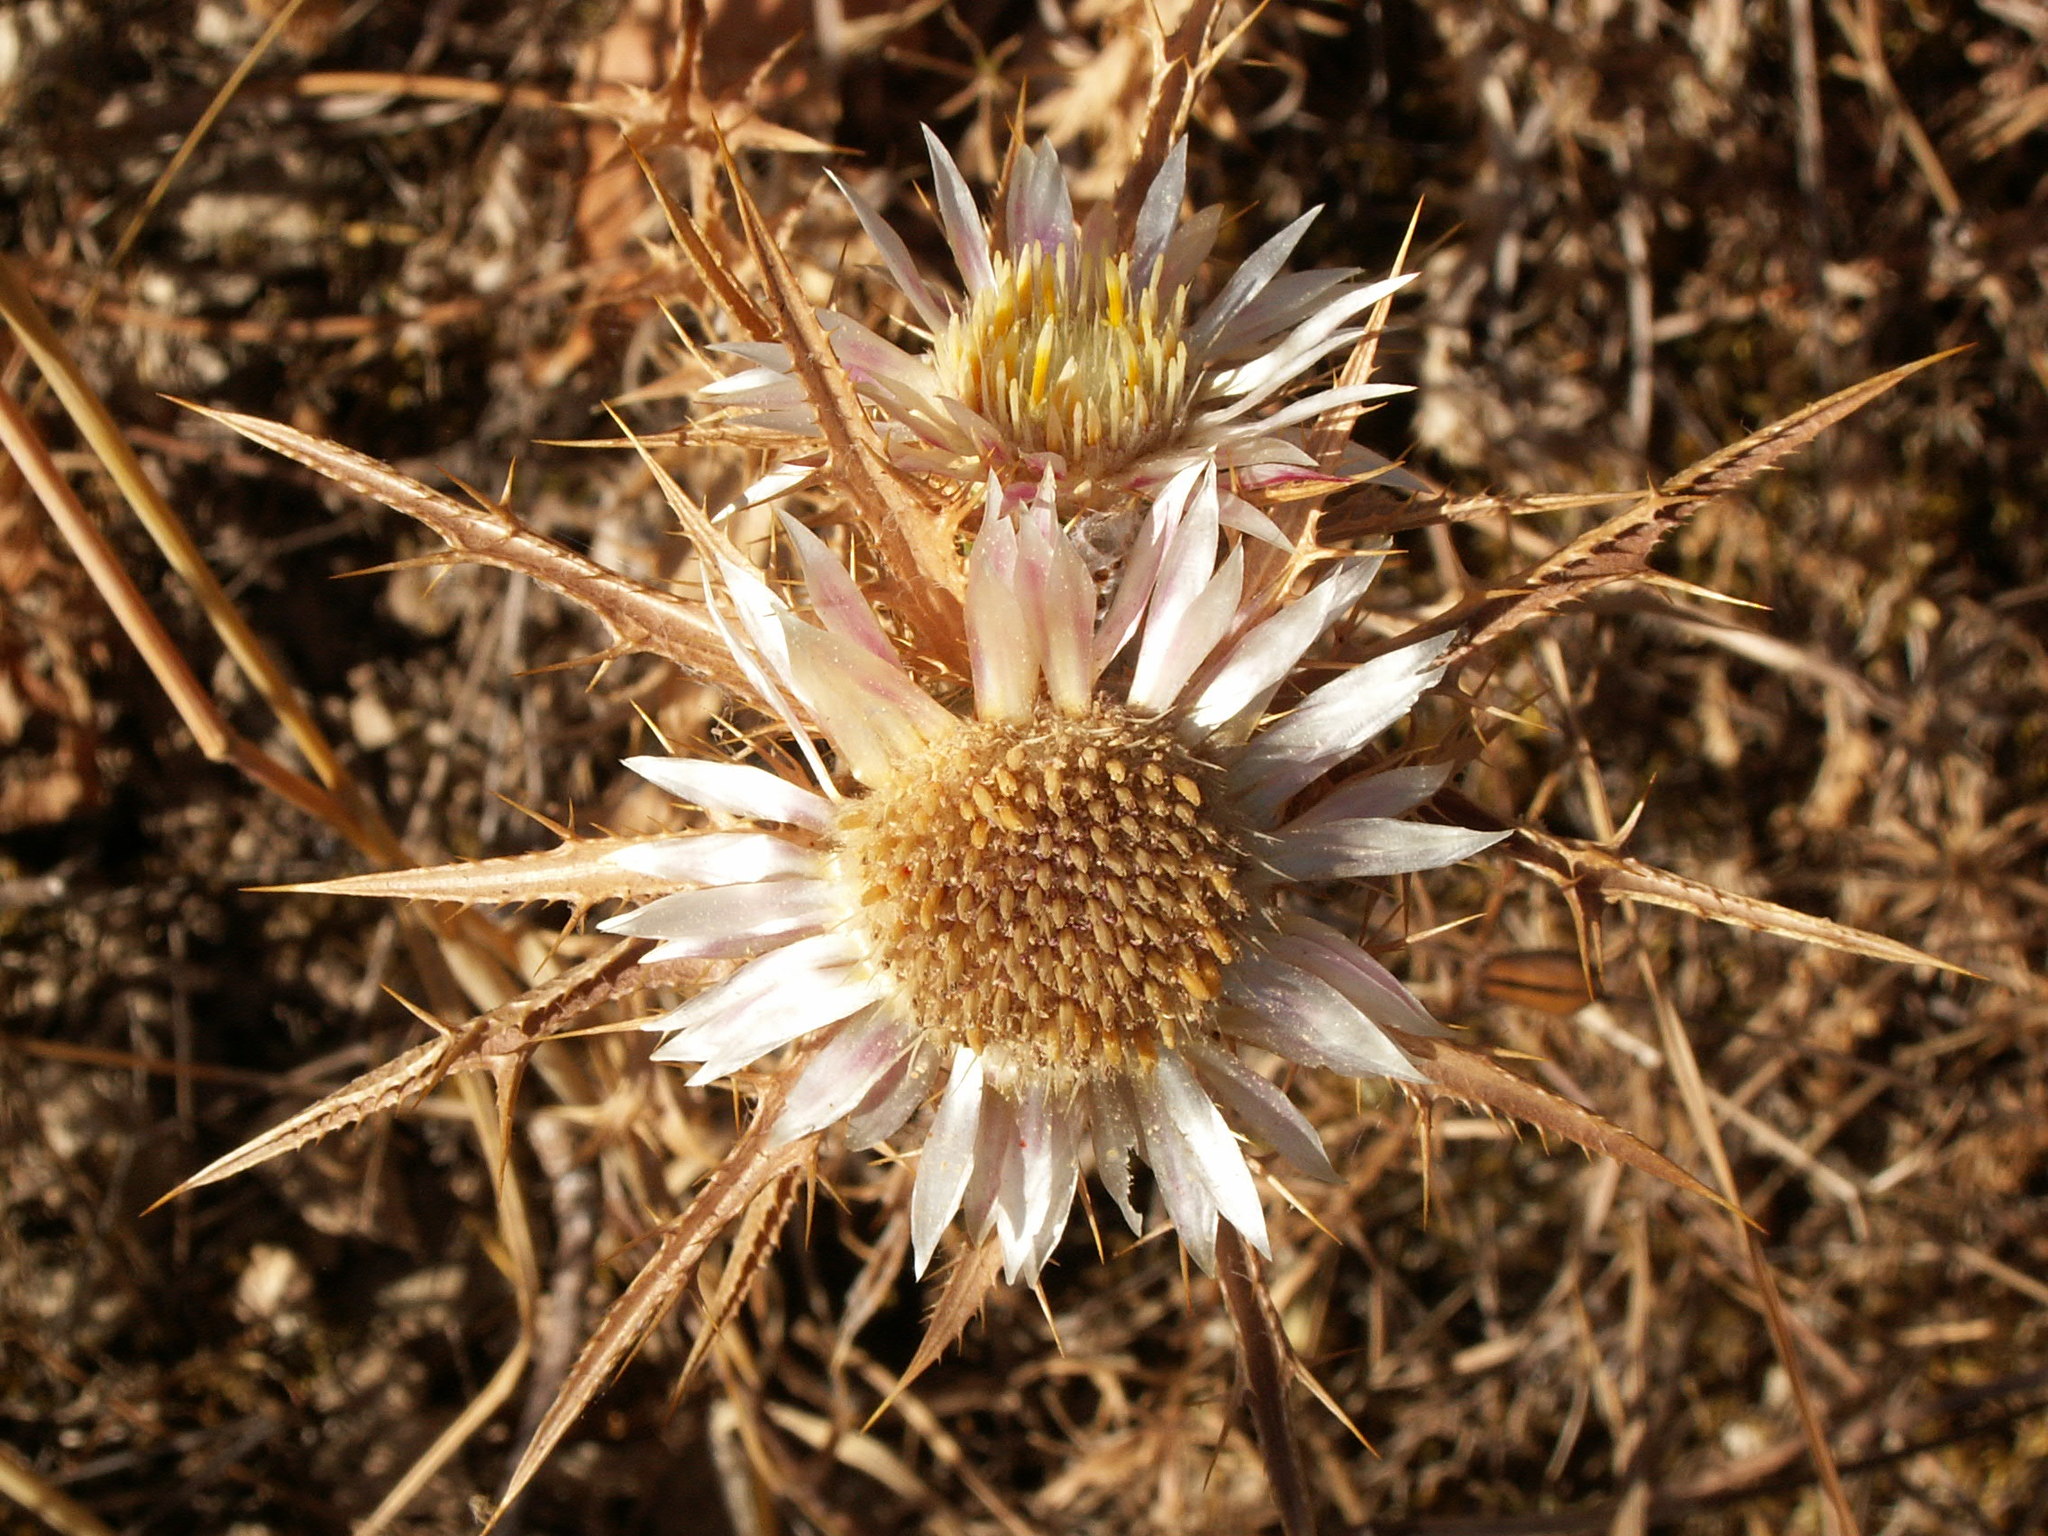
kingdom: Plantae
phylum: Tracheophyta
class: Magnoliopsida
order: Asterales
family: Asteraceae
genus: Carlina
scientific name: Carlina lanata
